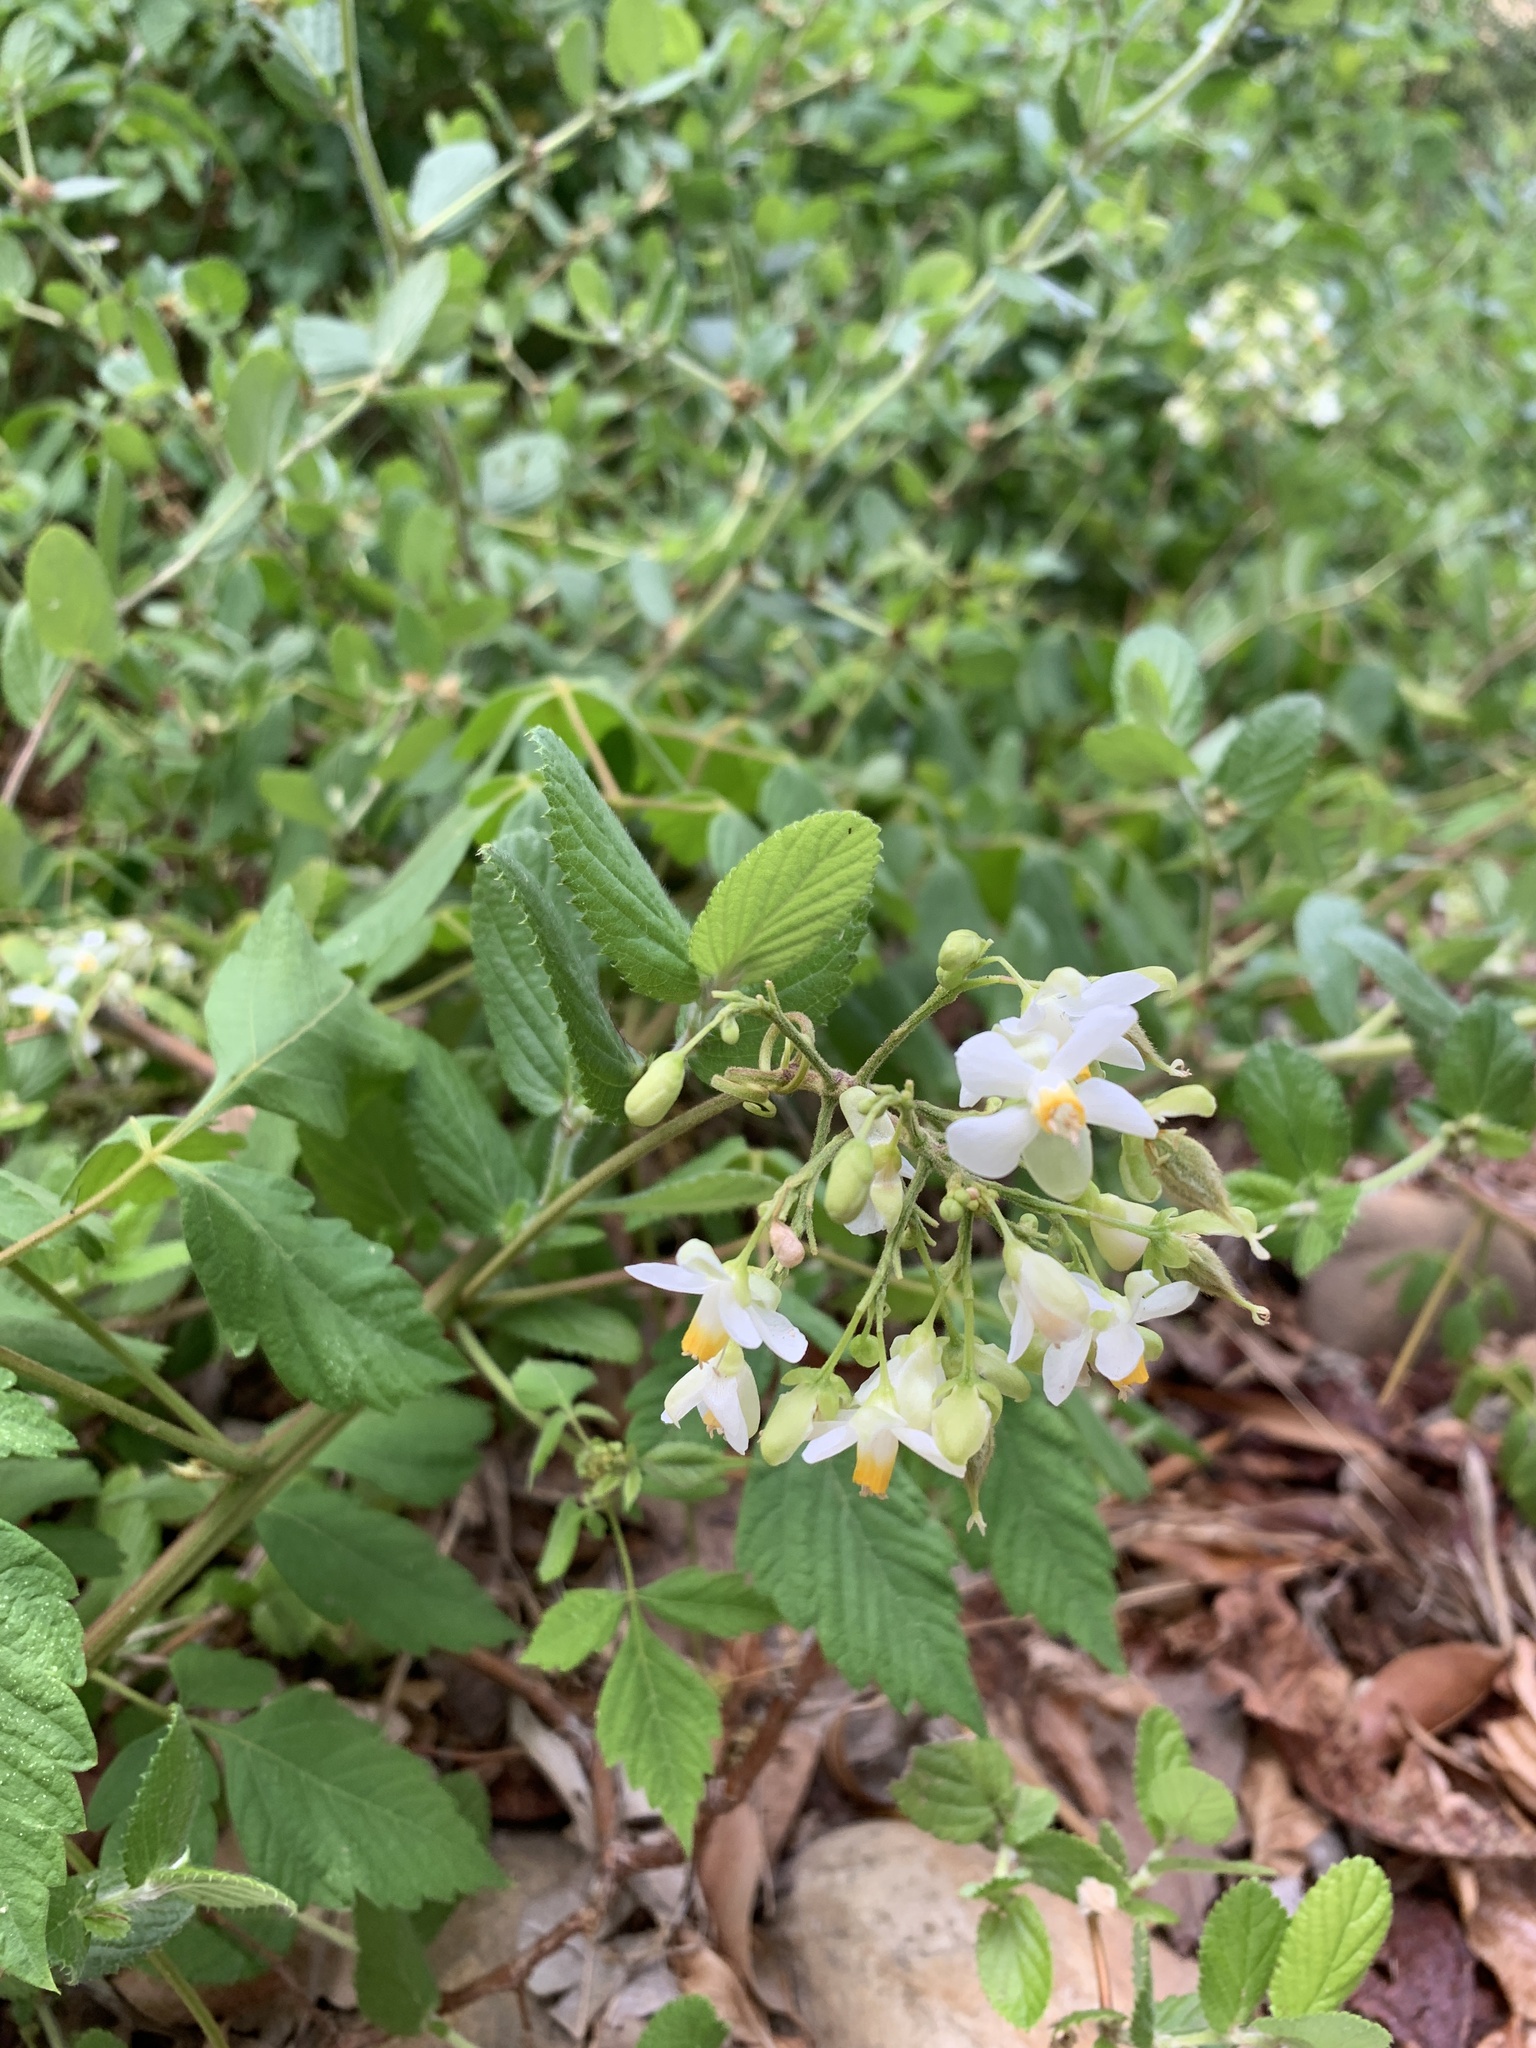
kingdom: Plantae
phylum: Tracheophyta
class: Magnoliopsida
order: Sapindales
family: Sapindaceae
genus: Cardiospermum
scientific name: Cardiospermum grandiflorum
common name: Balloon vine
